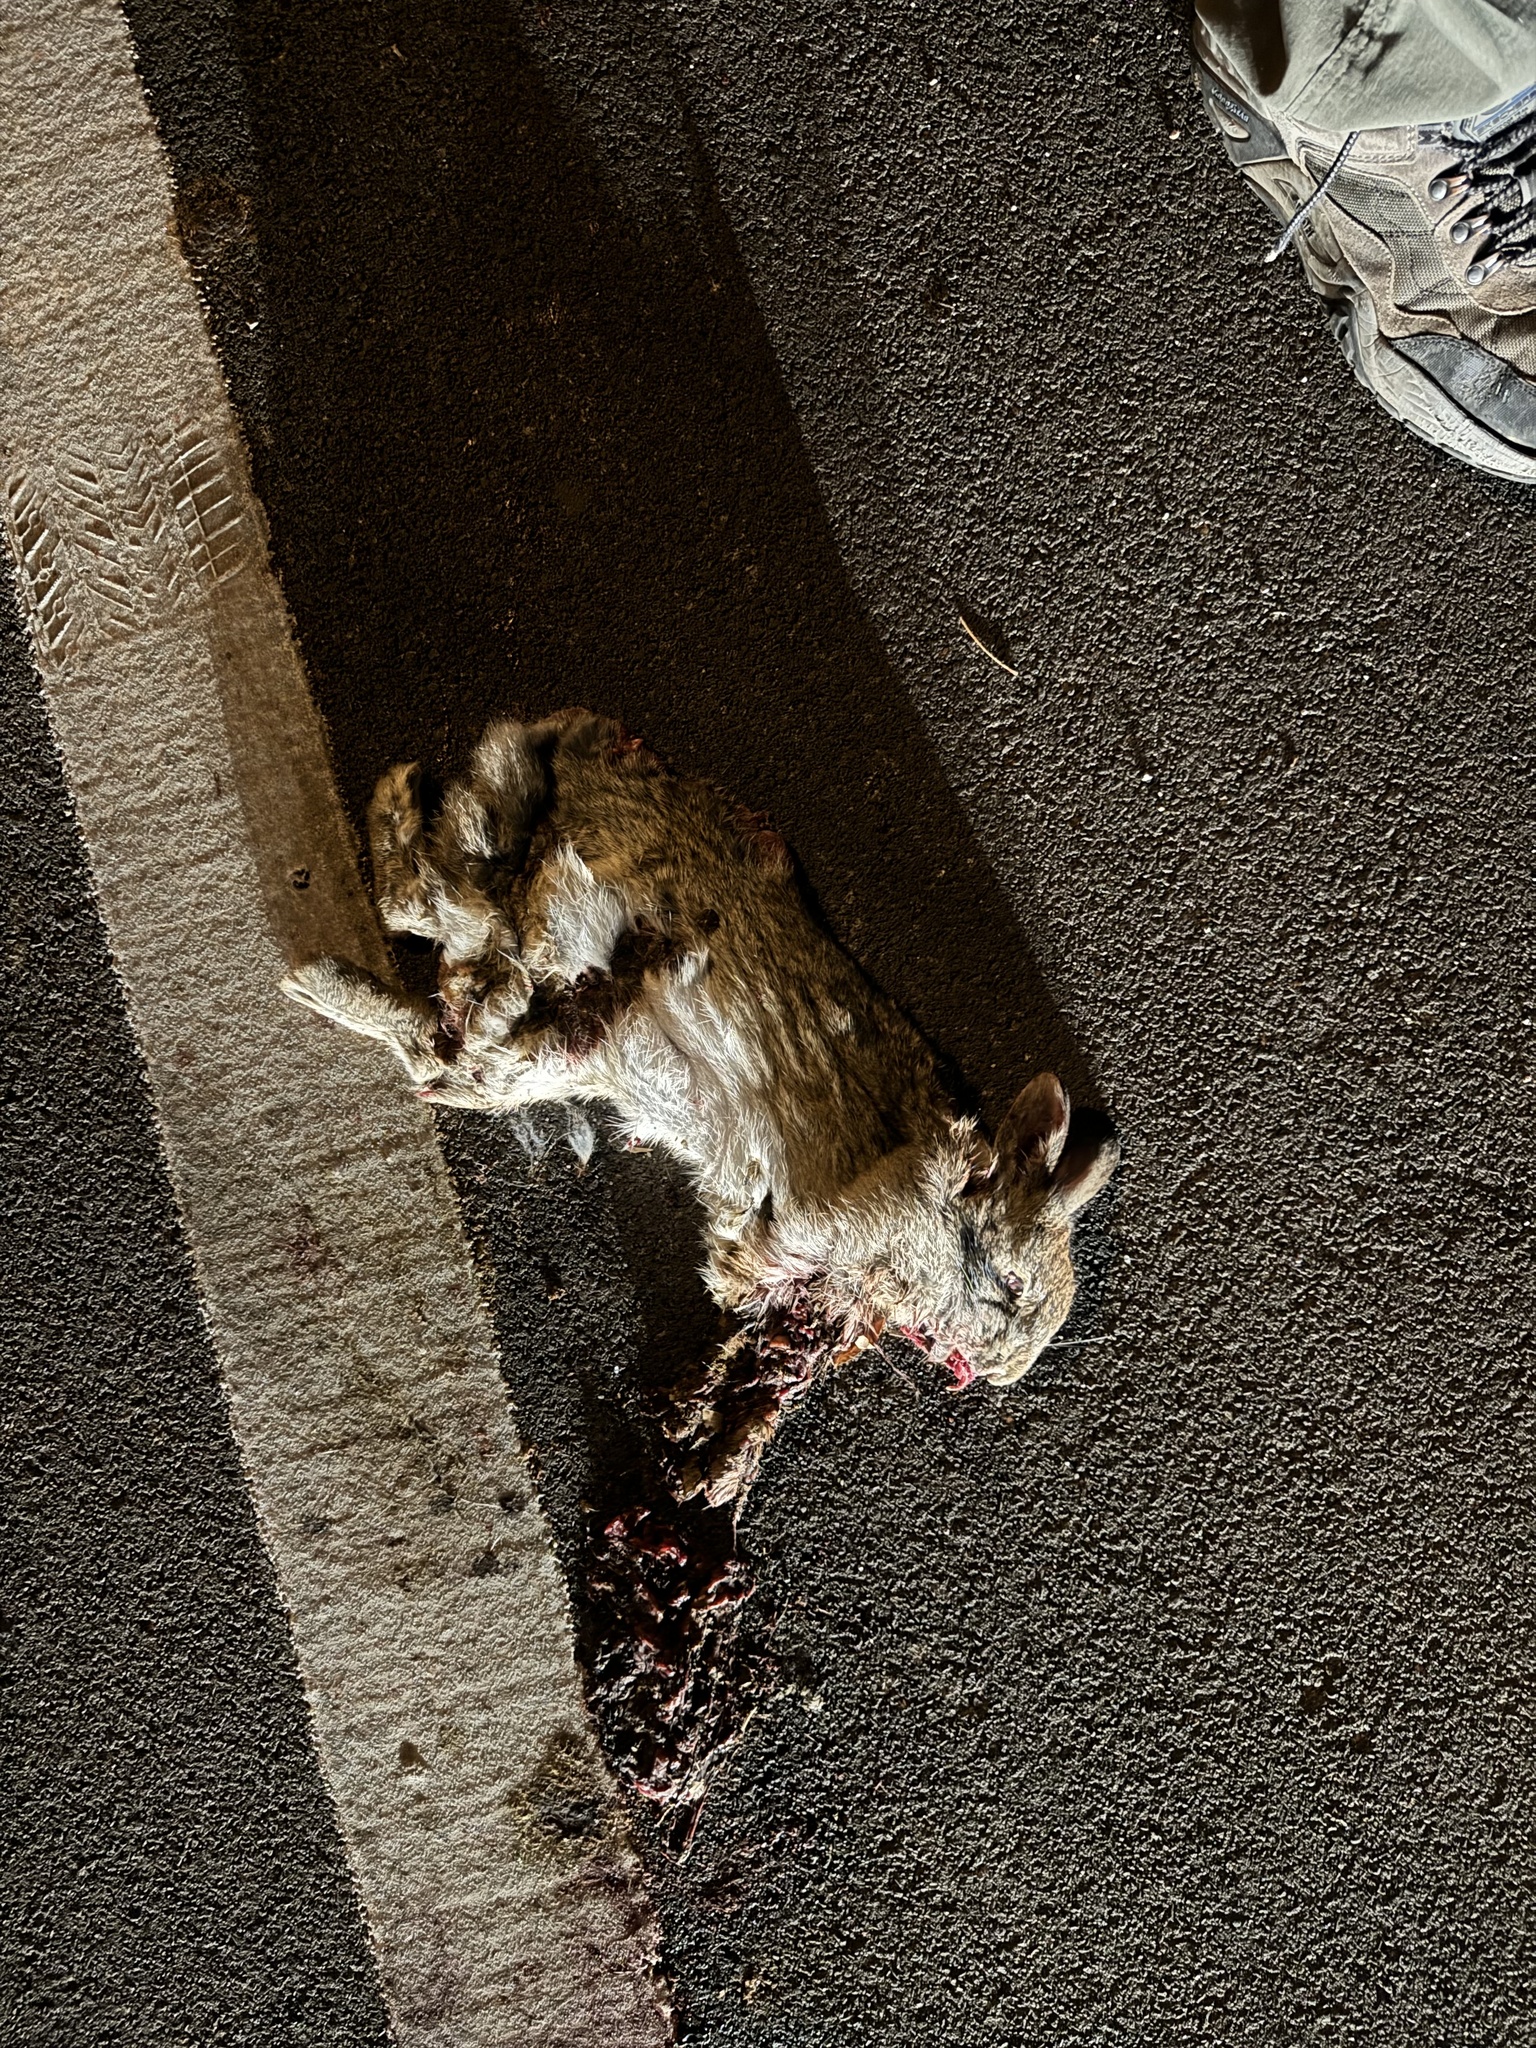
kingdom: Animalia
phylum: Chordata
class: Mammalia
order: Lagomorpha
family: Leporidae
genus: Sylvilagus
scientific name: Sylvilagus floridanus
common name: Eastern cottontail
